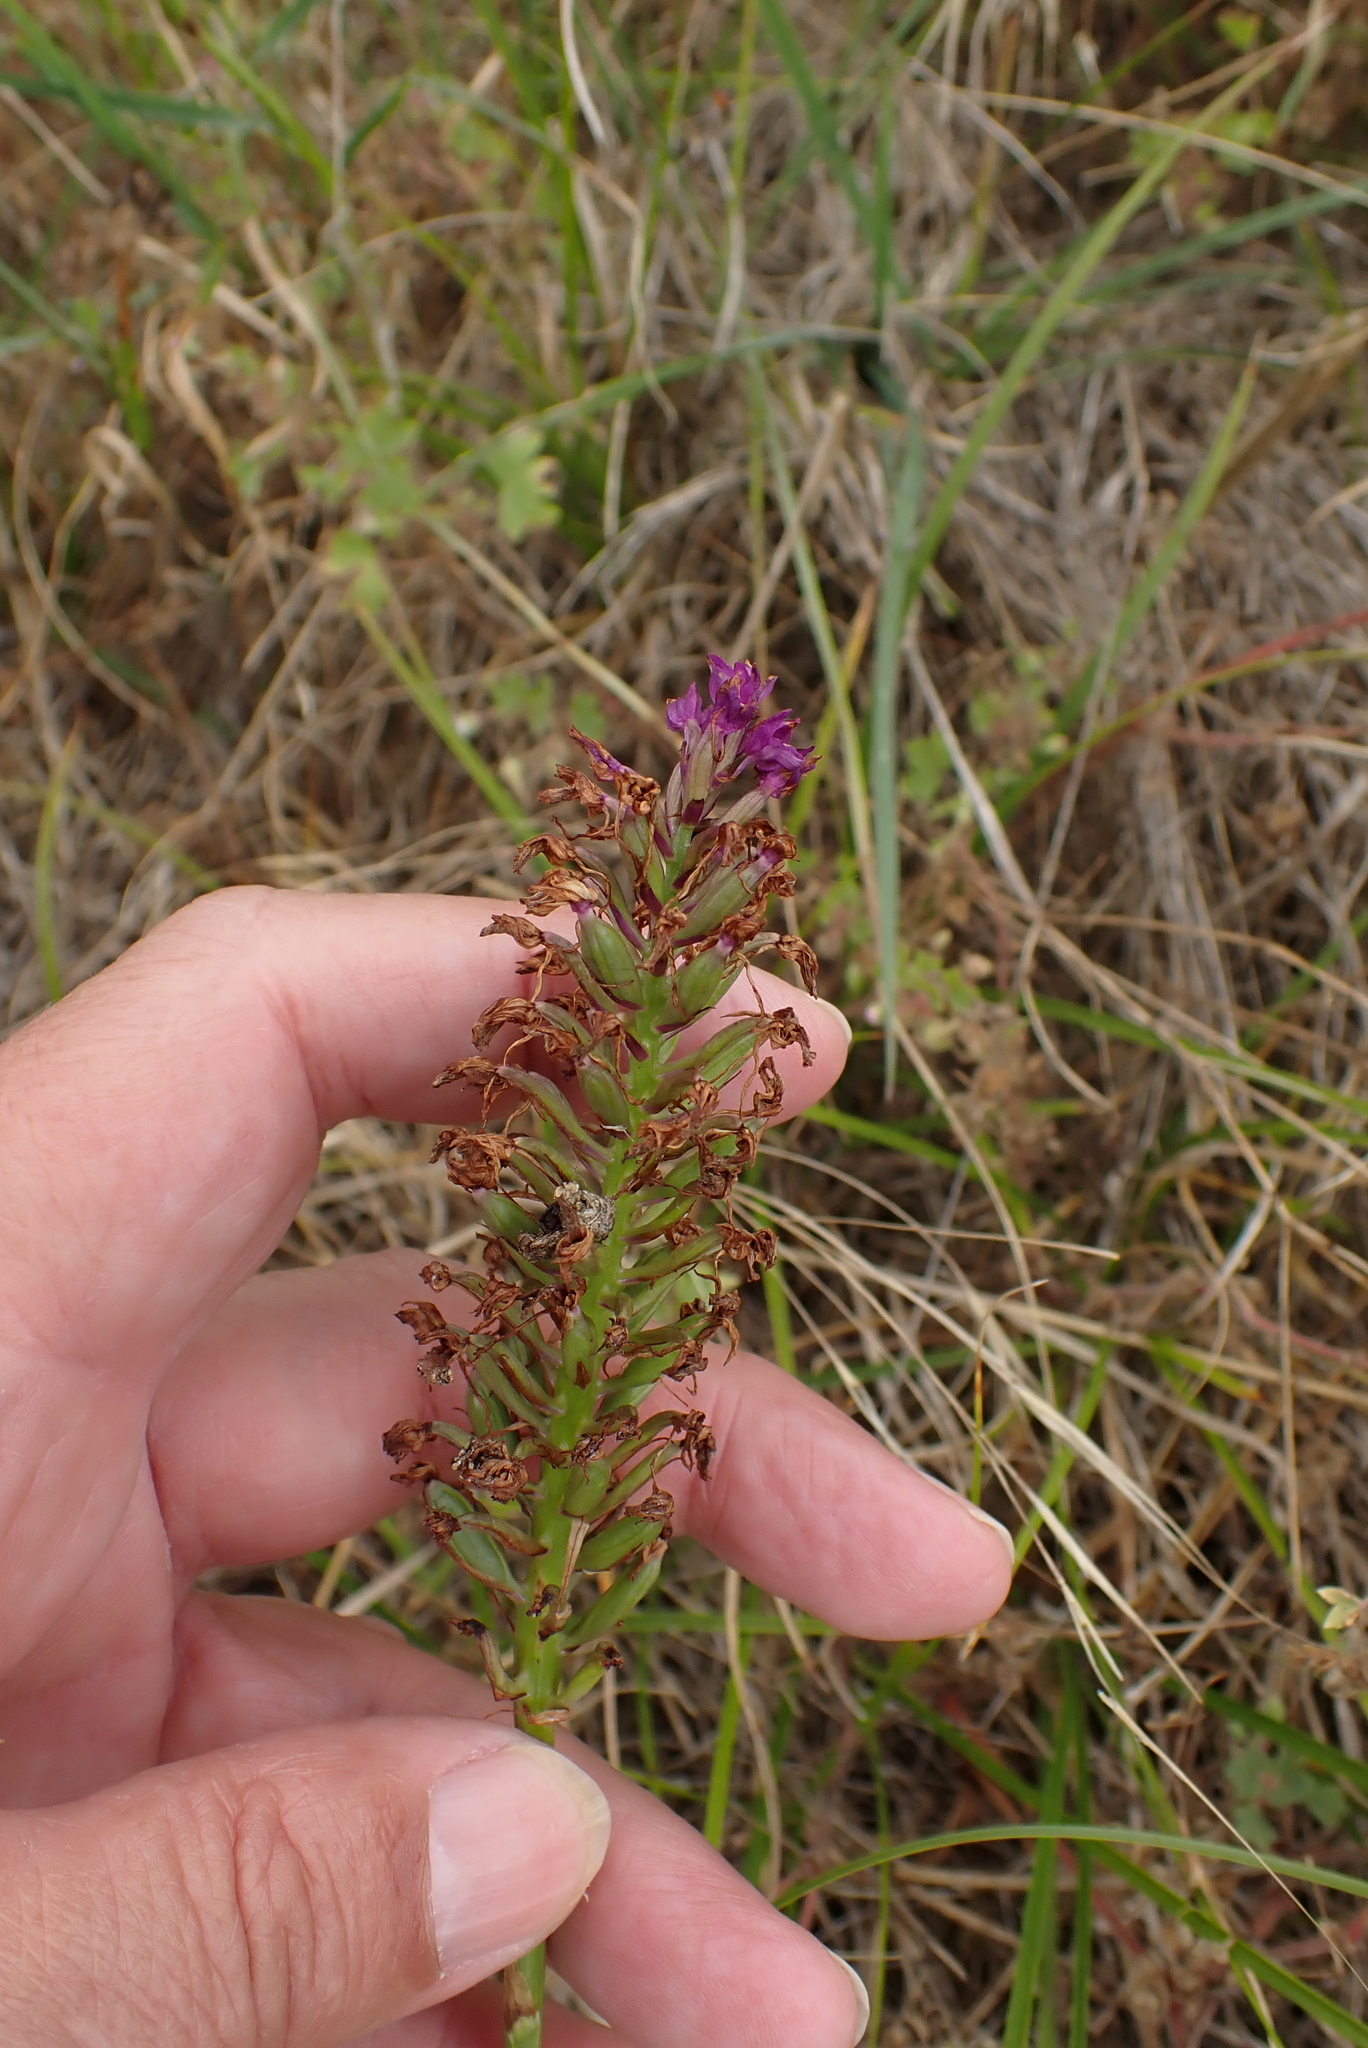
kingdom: Plantae
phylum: Tracheophyta
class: Liliopsida
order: Asparagales
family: Orchidaceae
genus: Anacamptis
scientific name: Anacamptis pyramidalis
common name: Pyramidal orchid
